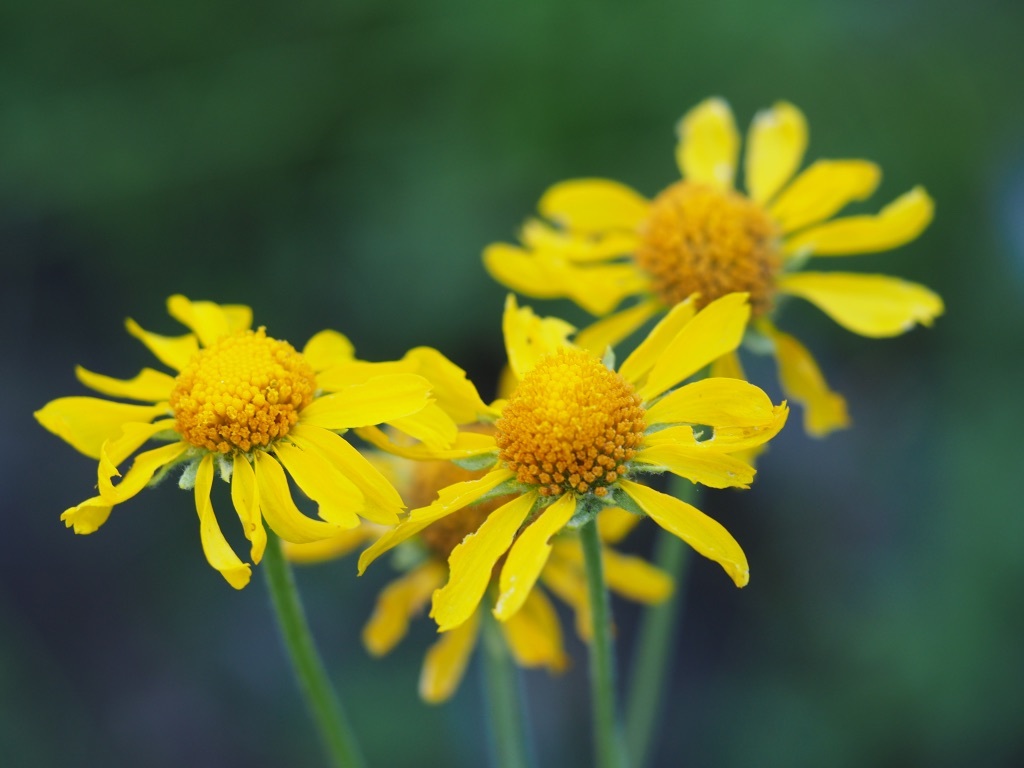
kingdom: Plantae
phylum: Tracheophyta
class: Magnoliopsida
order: Asterales
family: Asteraceae
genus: Hymenoxys
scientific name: Hymenoxys hoopesii
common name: Orange-sneezeweed
